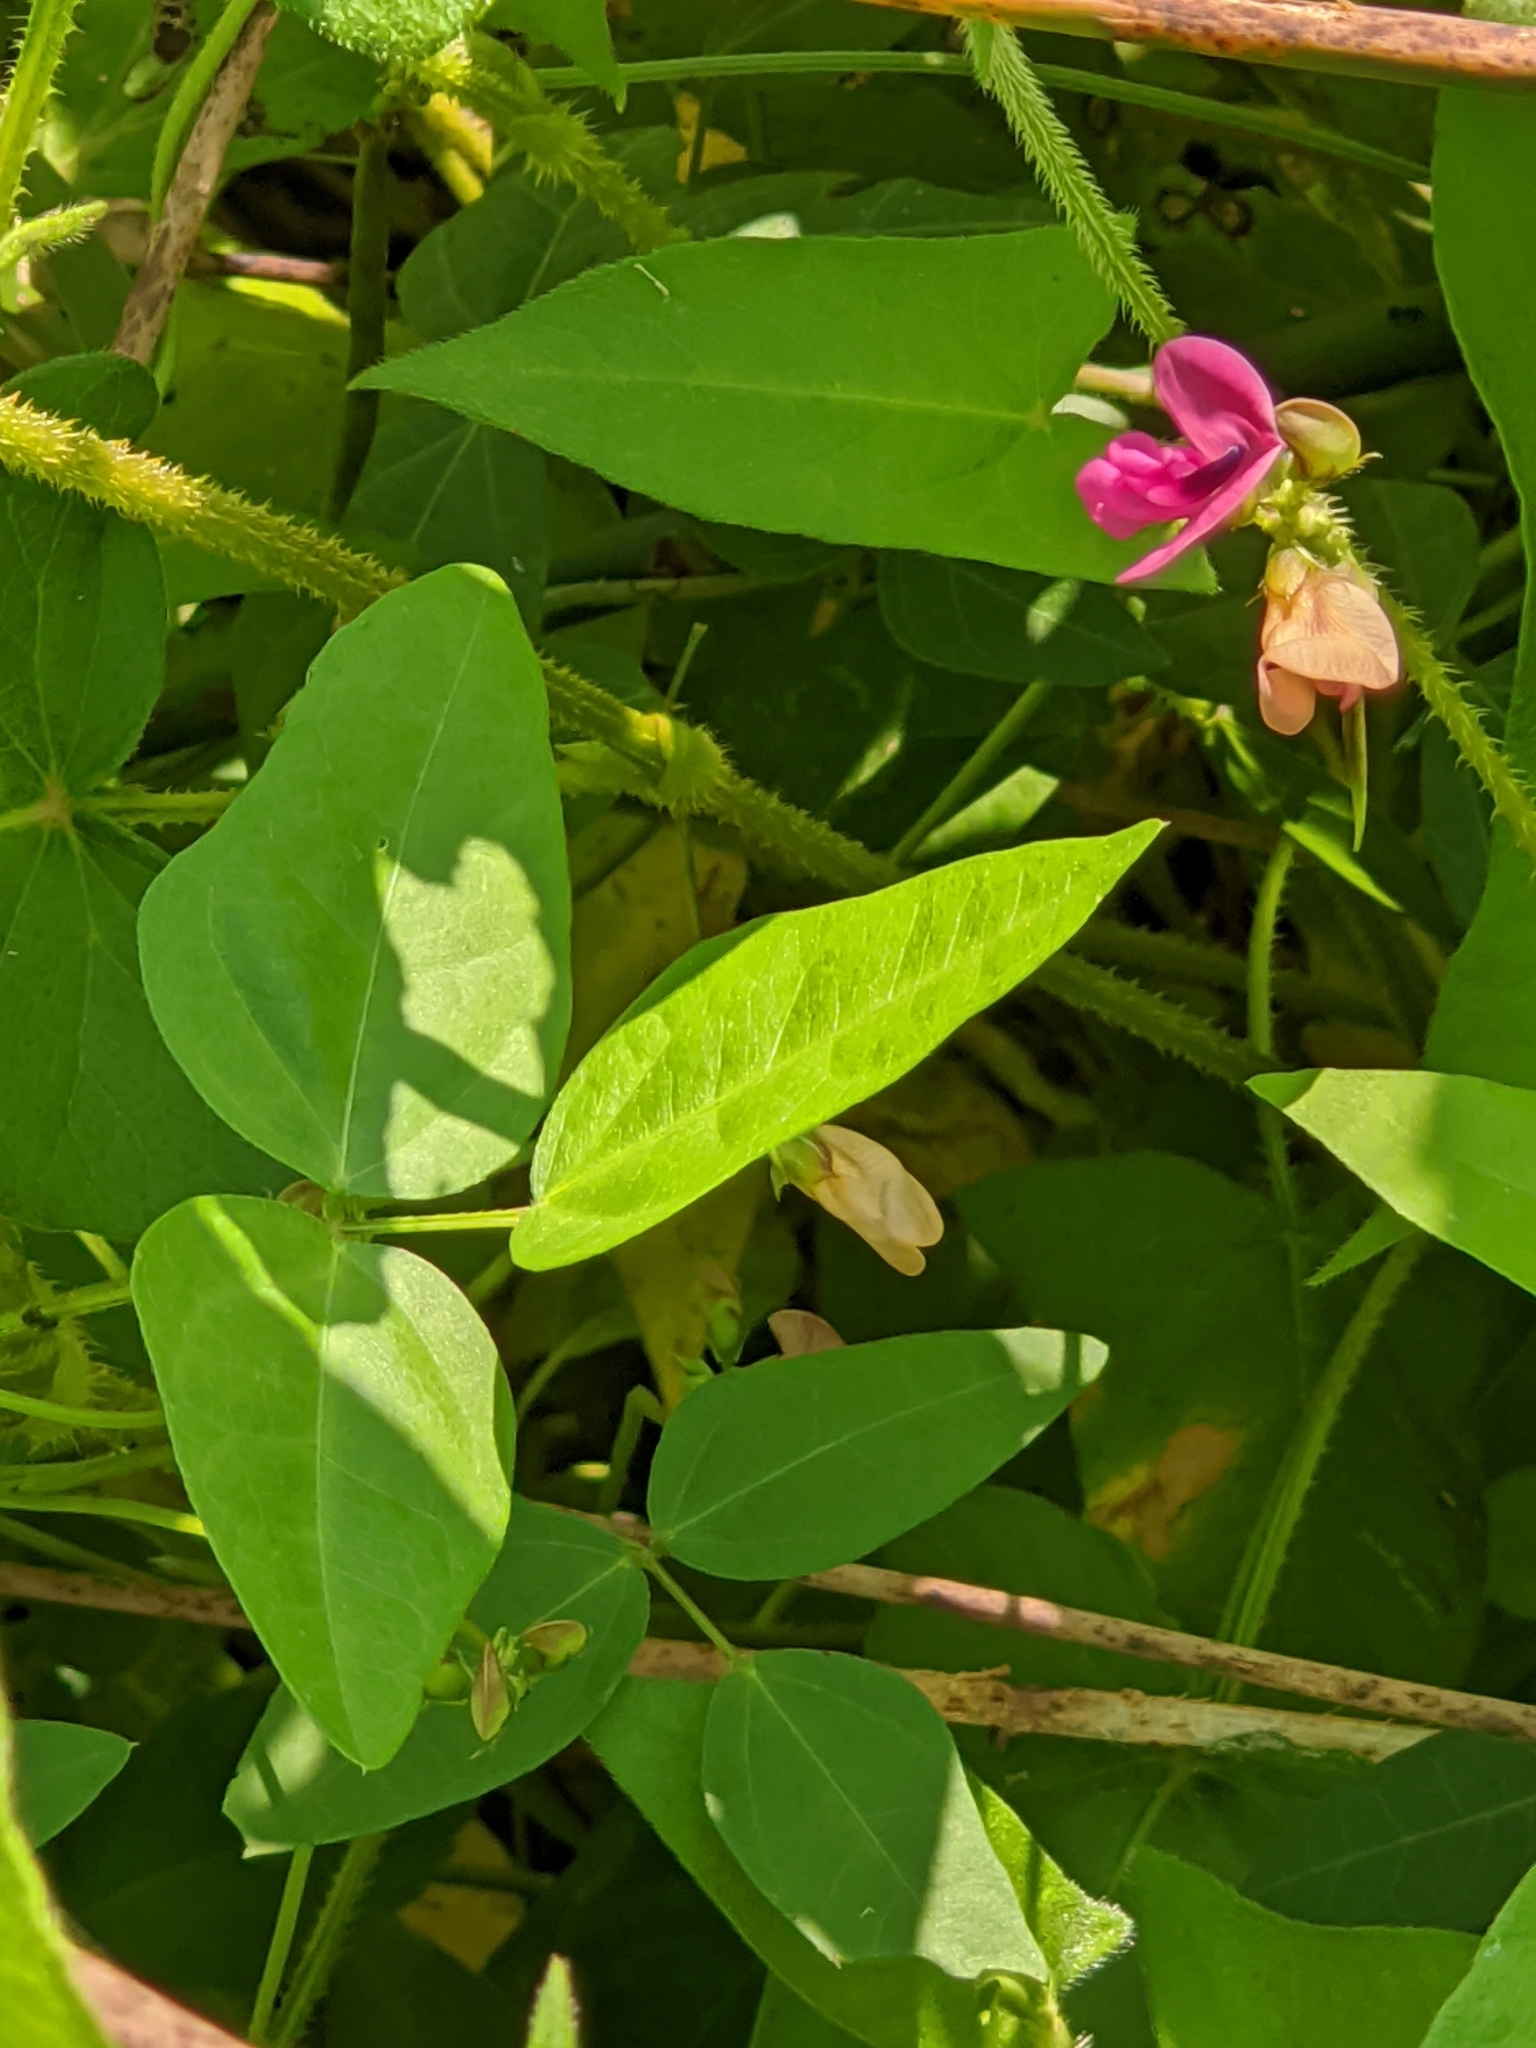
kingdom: Plantae
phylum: Tracheophyta
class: Magnoliopsida
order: Fabales
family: Fabaceae
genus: Strophostyles
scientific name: Strophostyles umbellata
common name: Perennial wild bean
